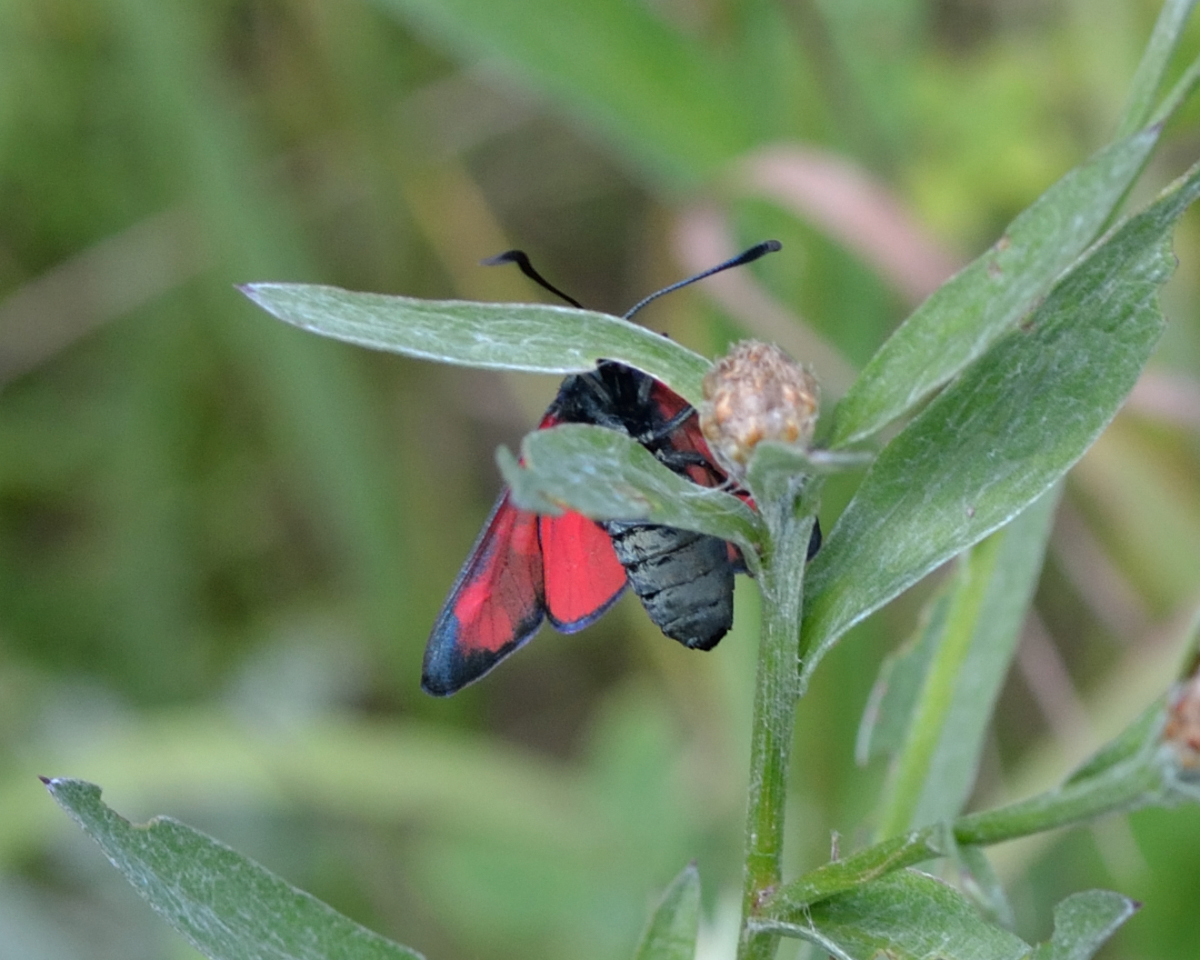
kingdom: Animalia
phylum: Arthropoda
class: Insecta
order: Lepidoptera
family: Zygaenidae
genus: Zygaena
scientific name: Zygaena filipendulae
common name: Six-spot burnet
